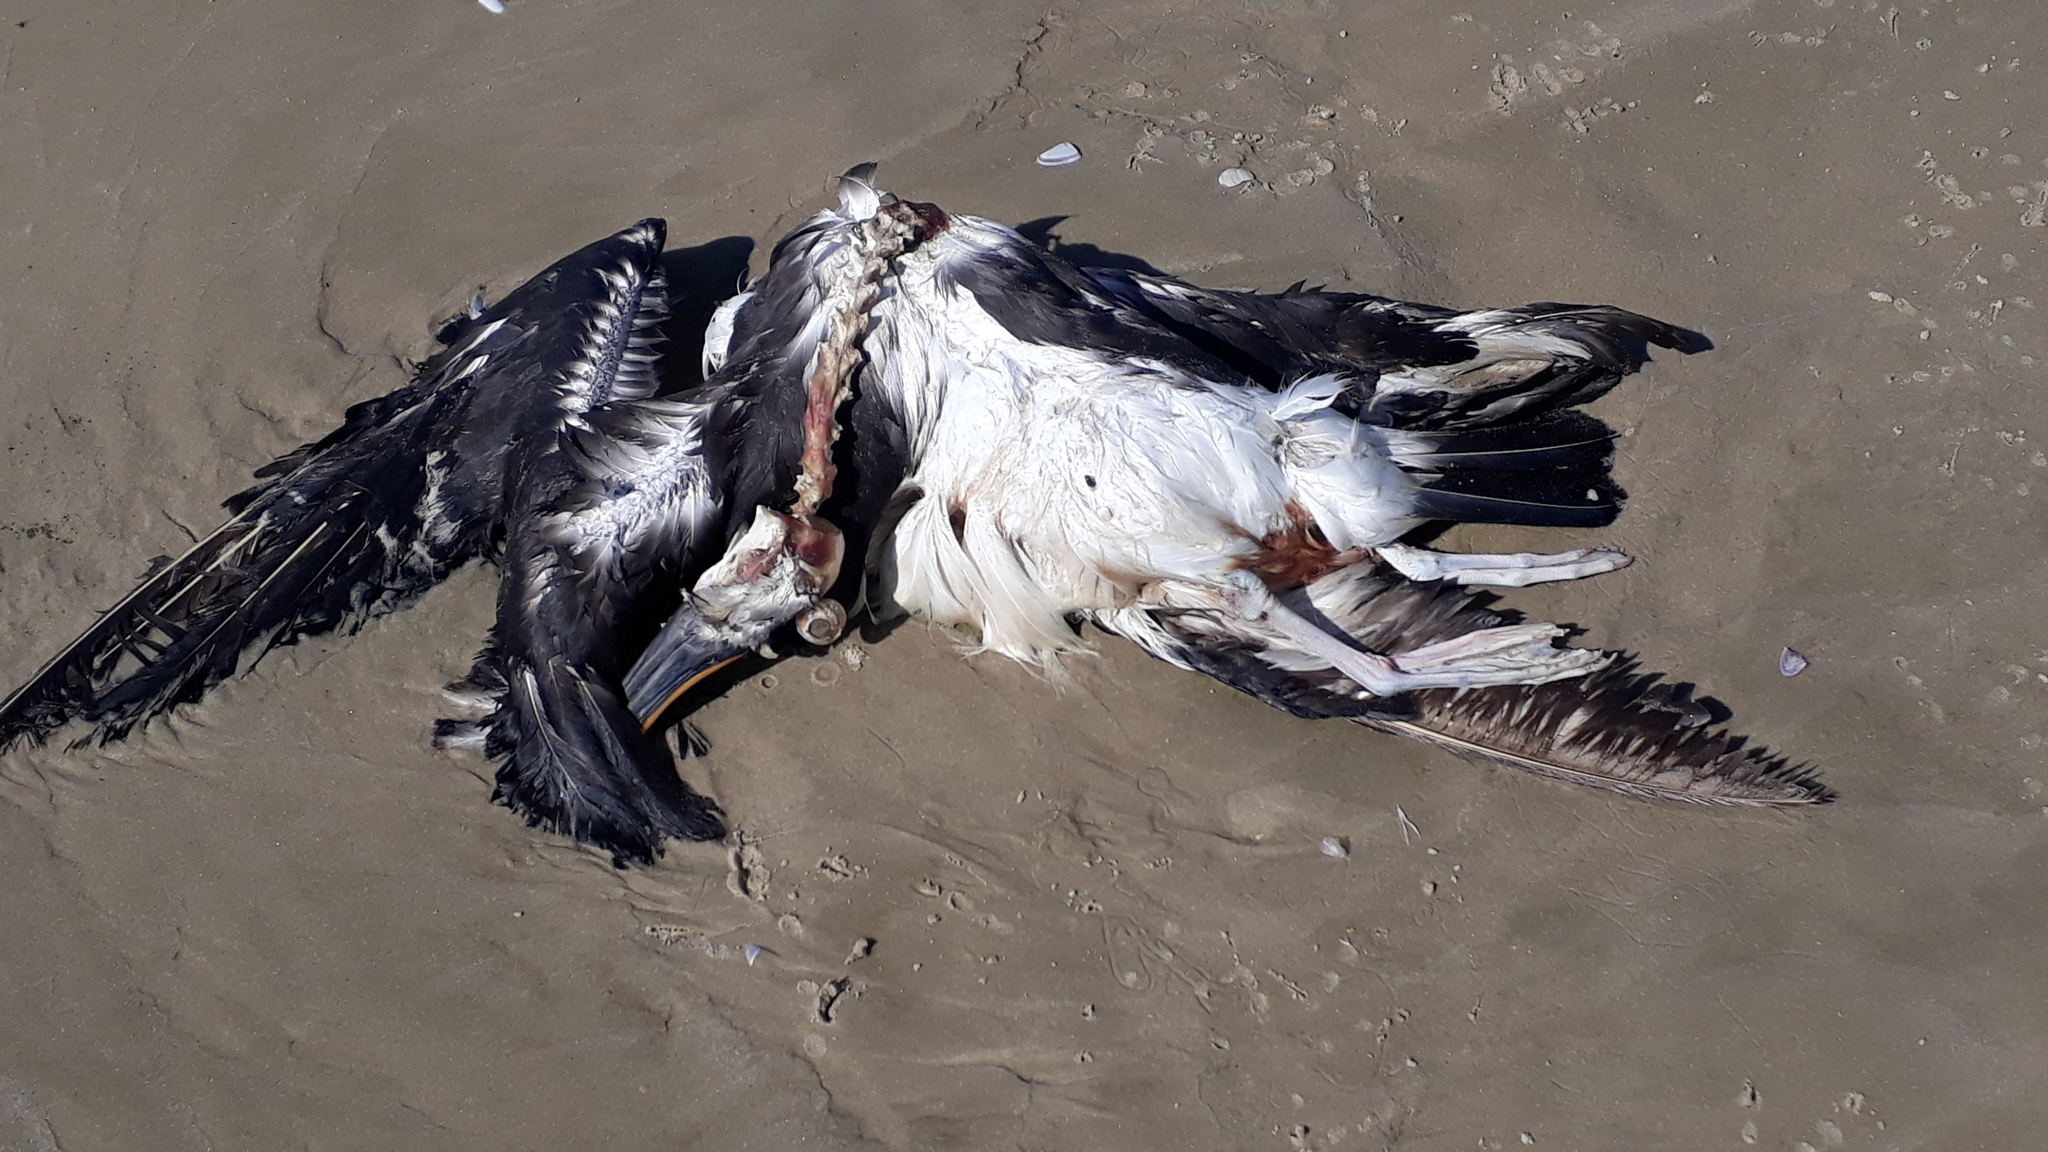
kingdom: Animalia
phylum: Chordata
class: Aves
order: Procellariiformes
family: Diomedeidae
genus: Thalassarche
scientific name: Thalassarche chlororhynchos
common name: Atlantic yellow-nosed albatross
